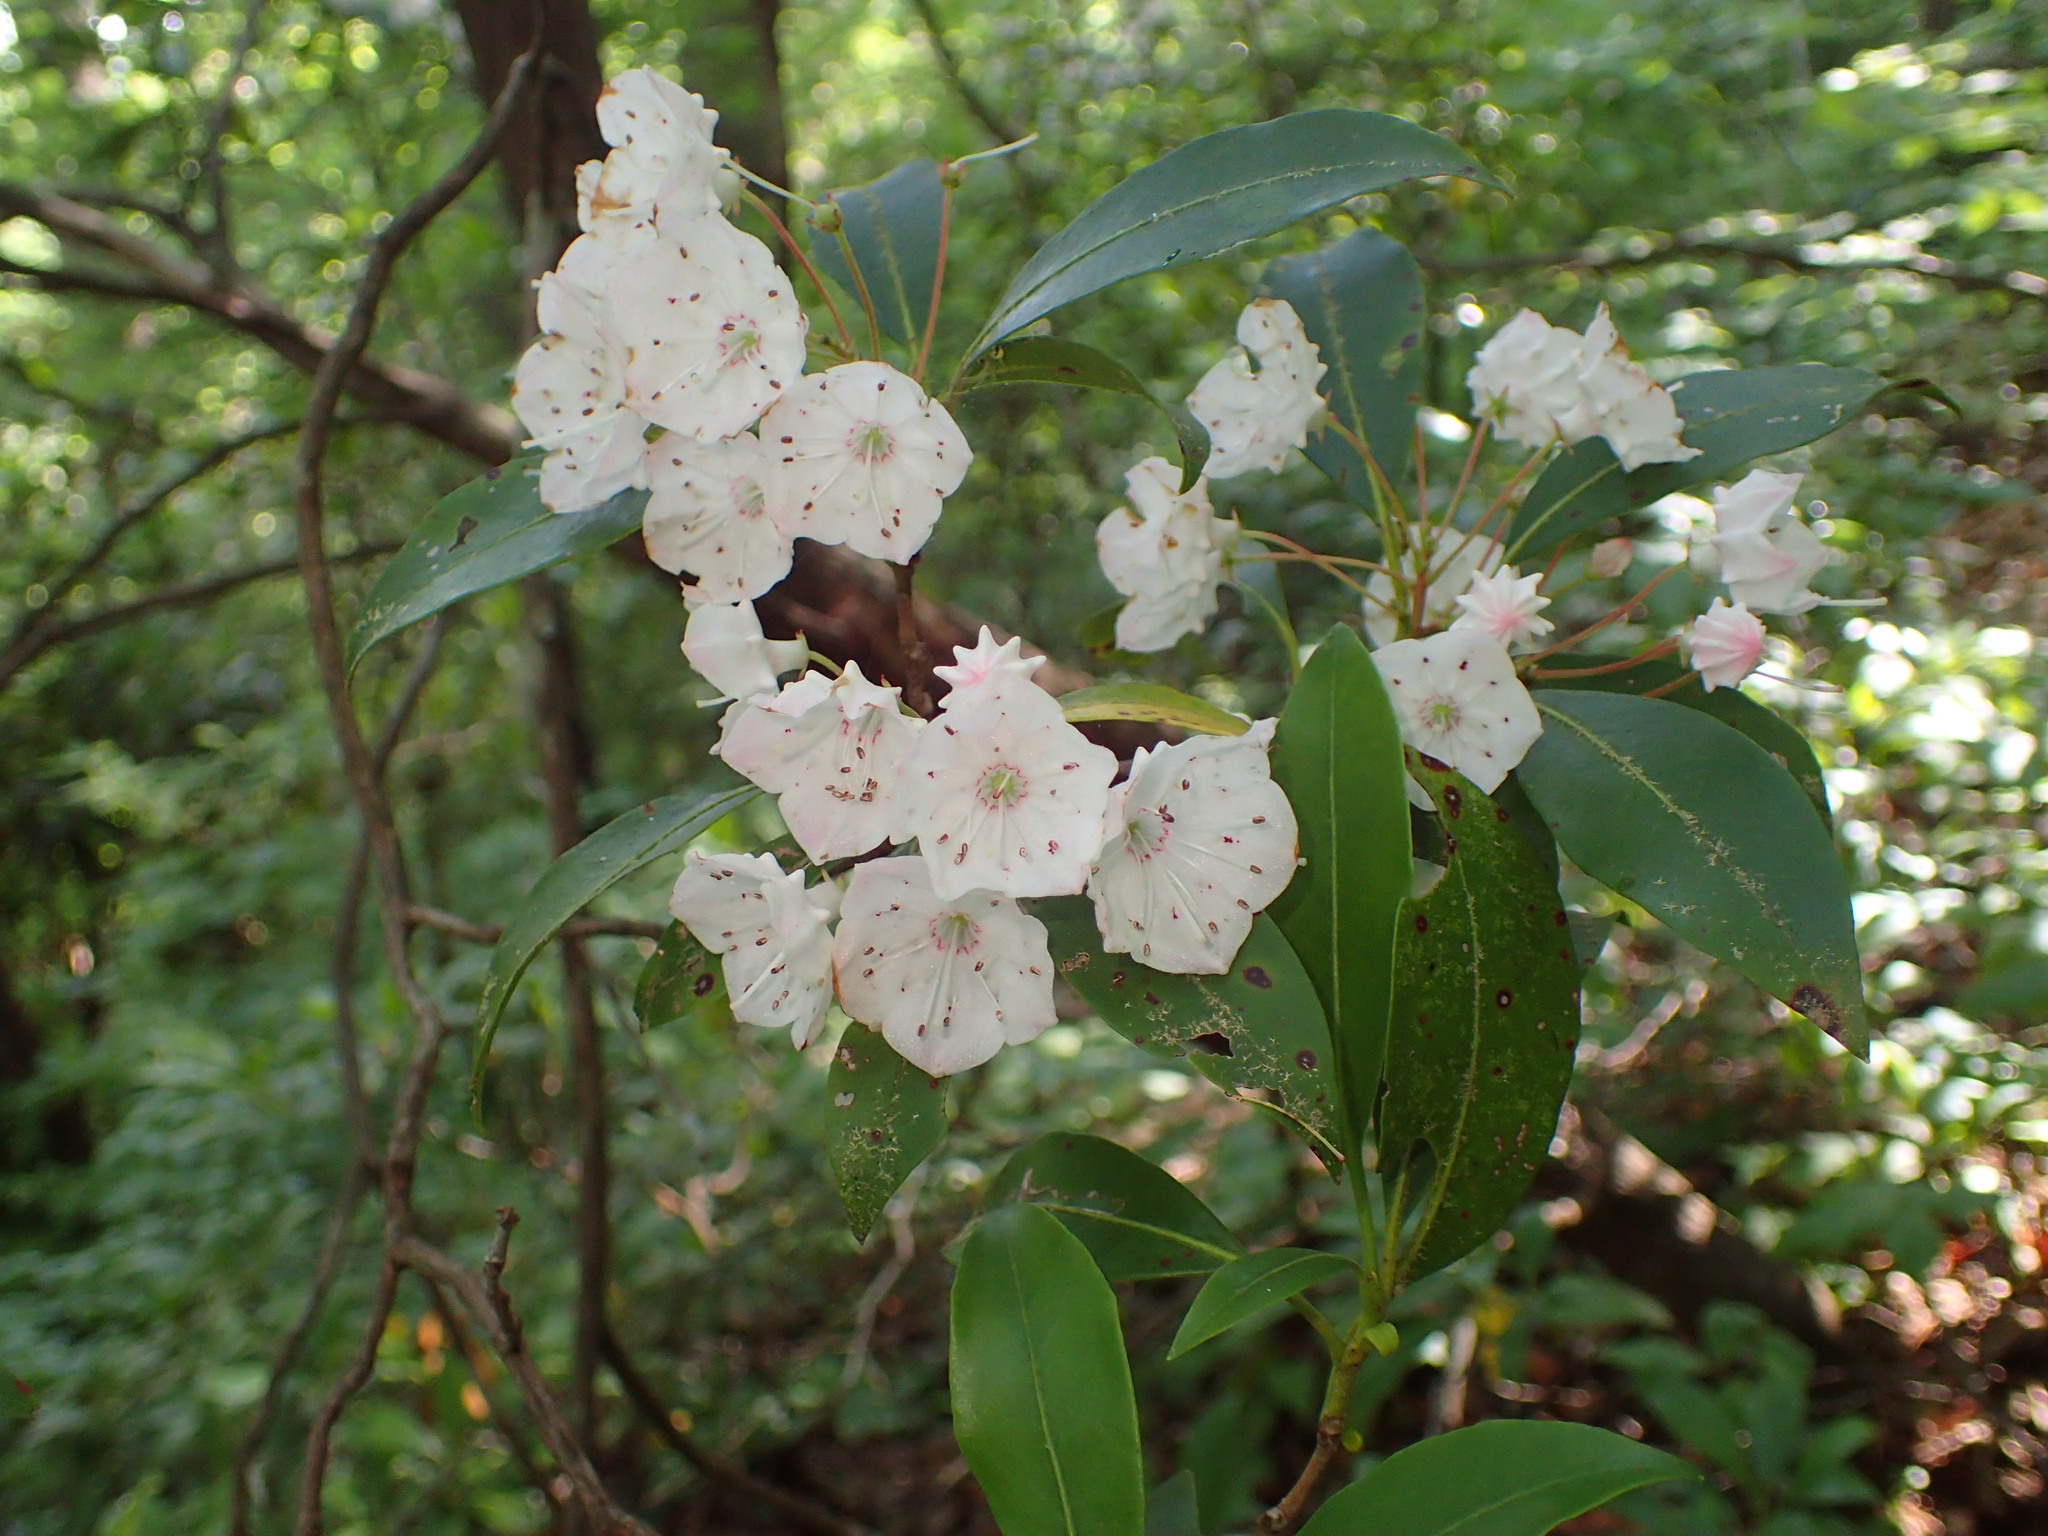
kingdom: Plantae
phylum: Tracheophyta
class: Magnoliopsida
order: Ericales
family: Ericaceae
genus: Kalmia
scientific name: Kalmia latifolia
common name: Mountain-laurel
